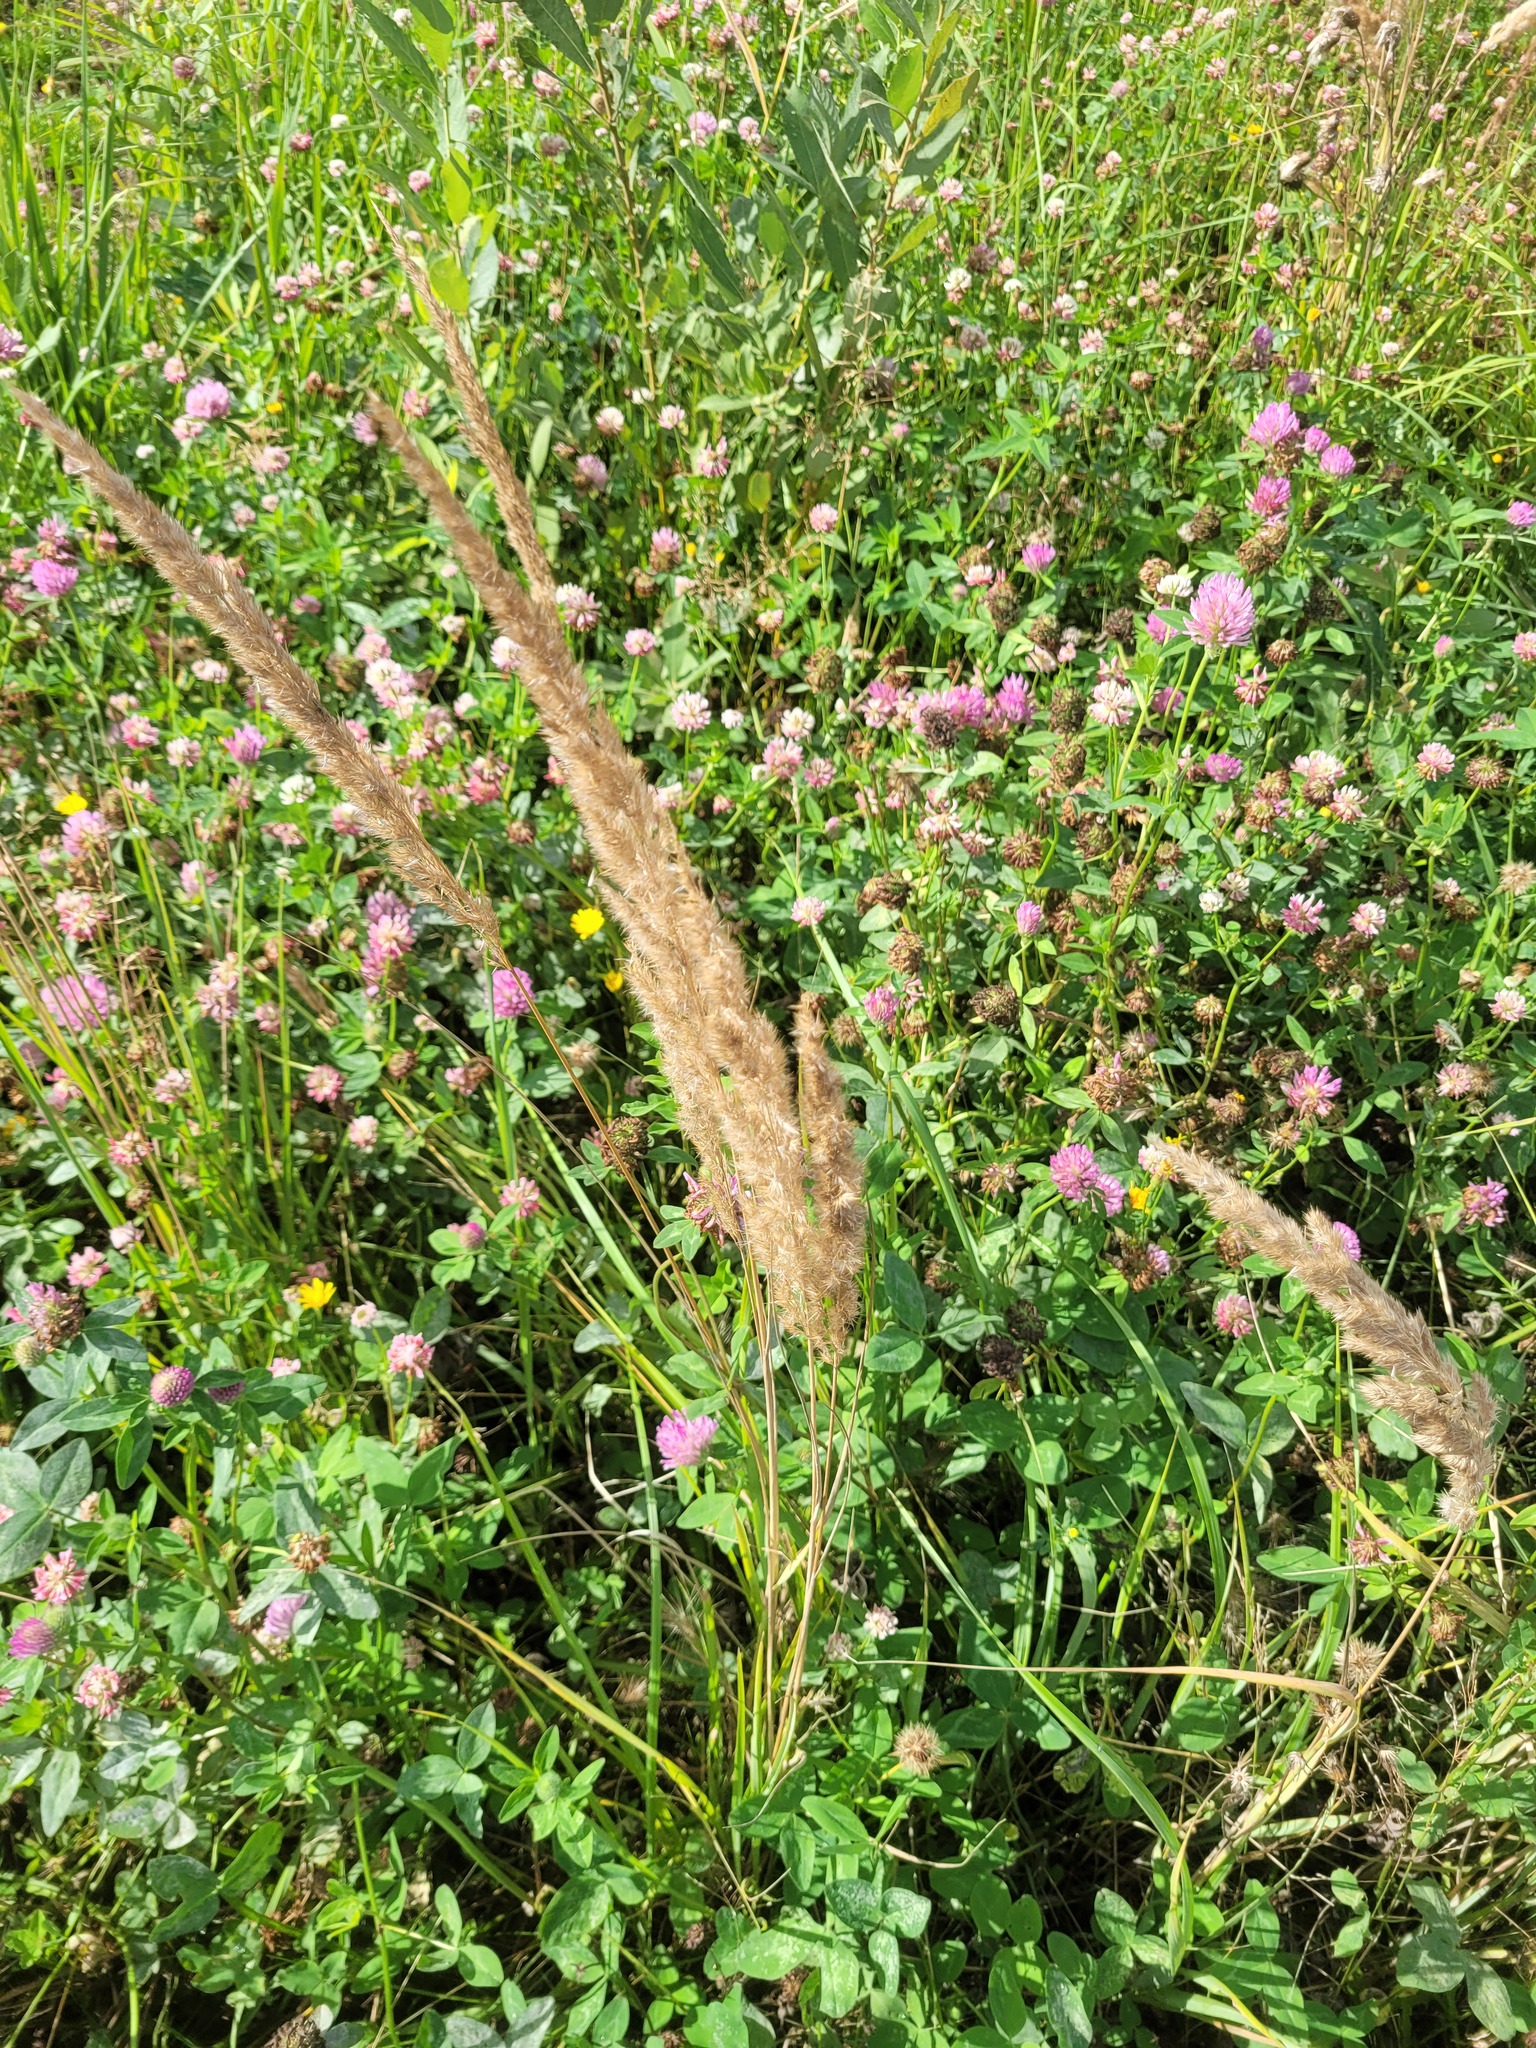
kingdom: Plantae
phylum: Tracheophyta
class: Liliopsida
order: Poales
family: Poaceae
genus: Calamagrostis
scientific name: Calamagrostis epigejos
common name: Wood small-reed
